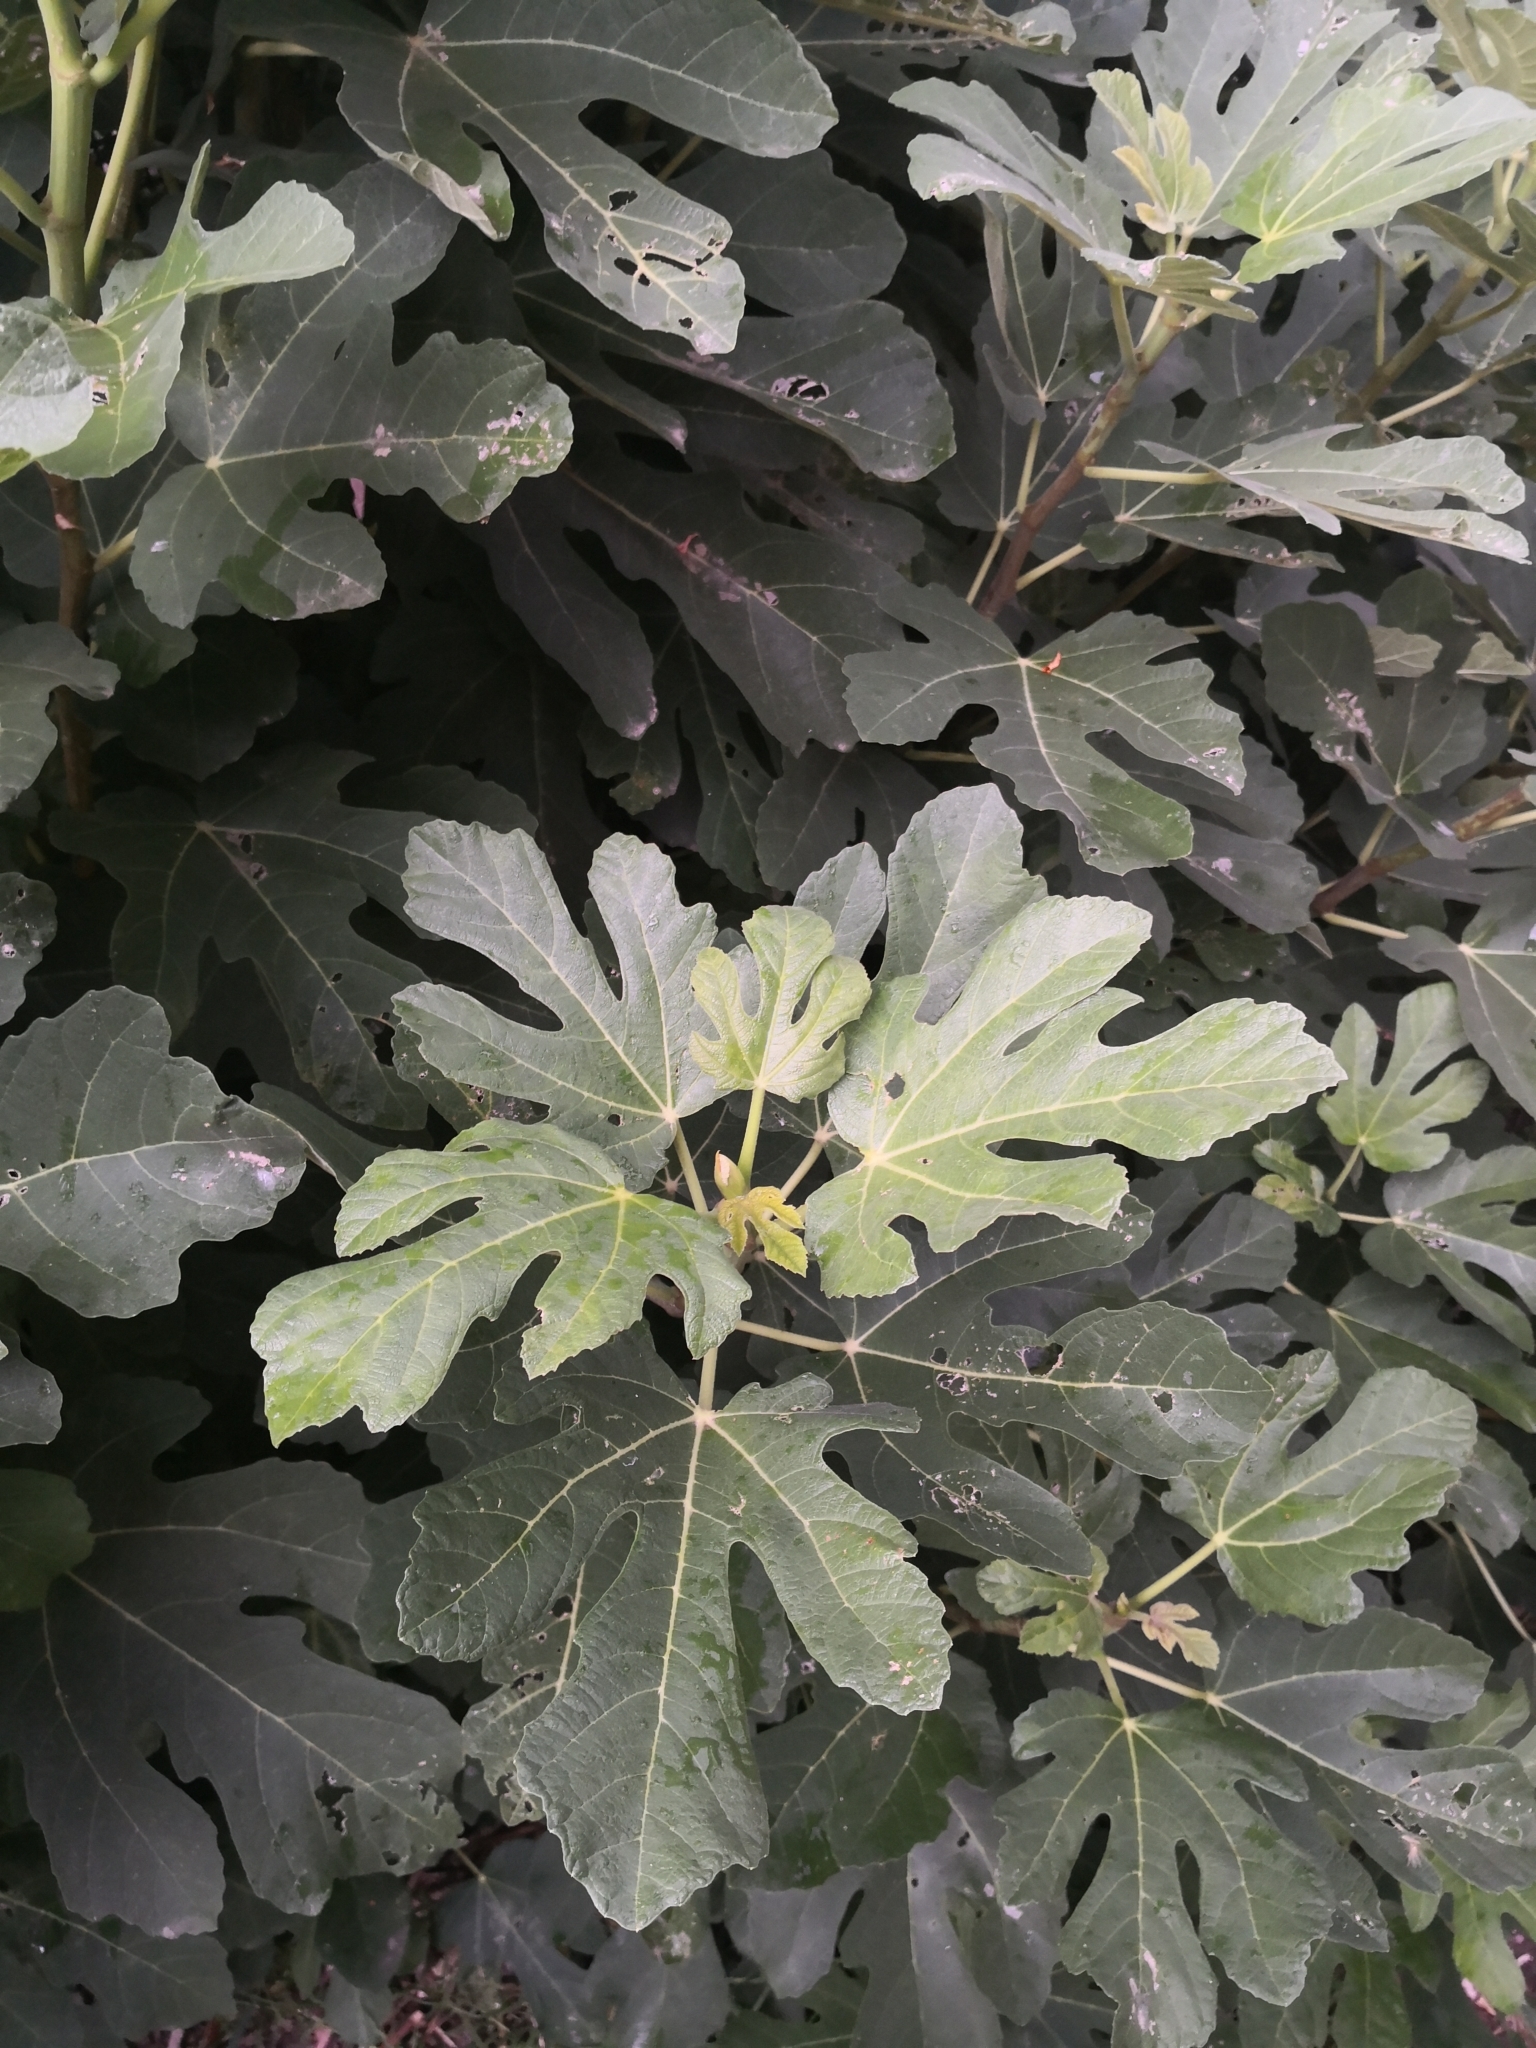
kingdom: Plantae
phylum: Tracheophyta
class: Magnoliopsida
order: Rosales
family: Moraceae
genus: Ficus
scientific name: Ficus carica
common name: Fig
